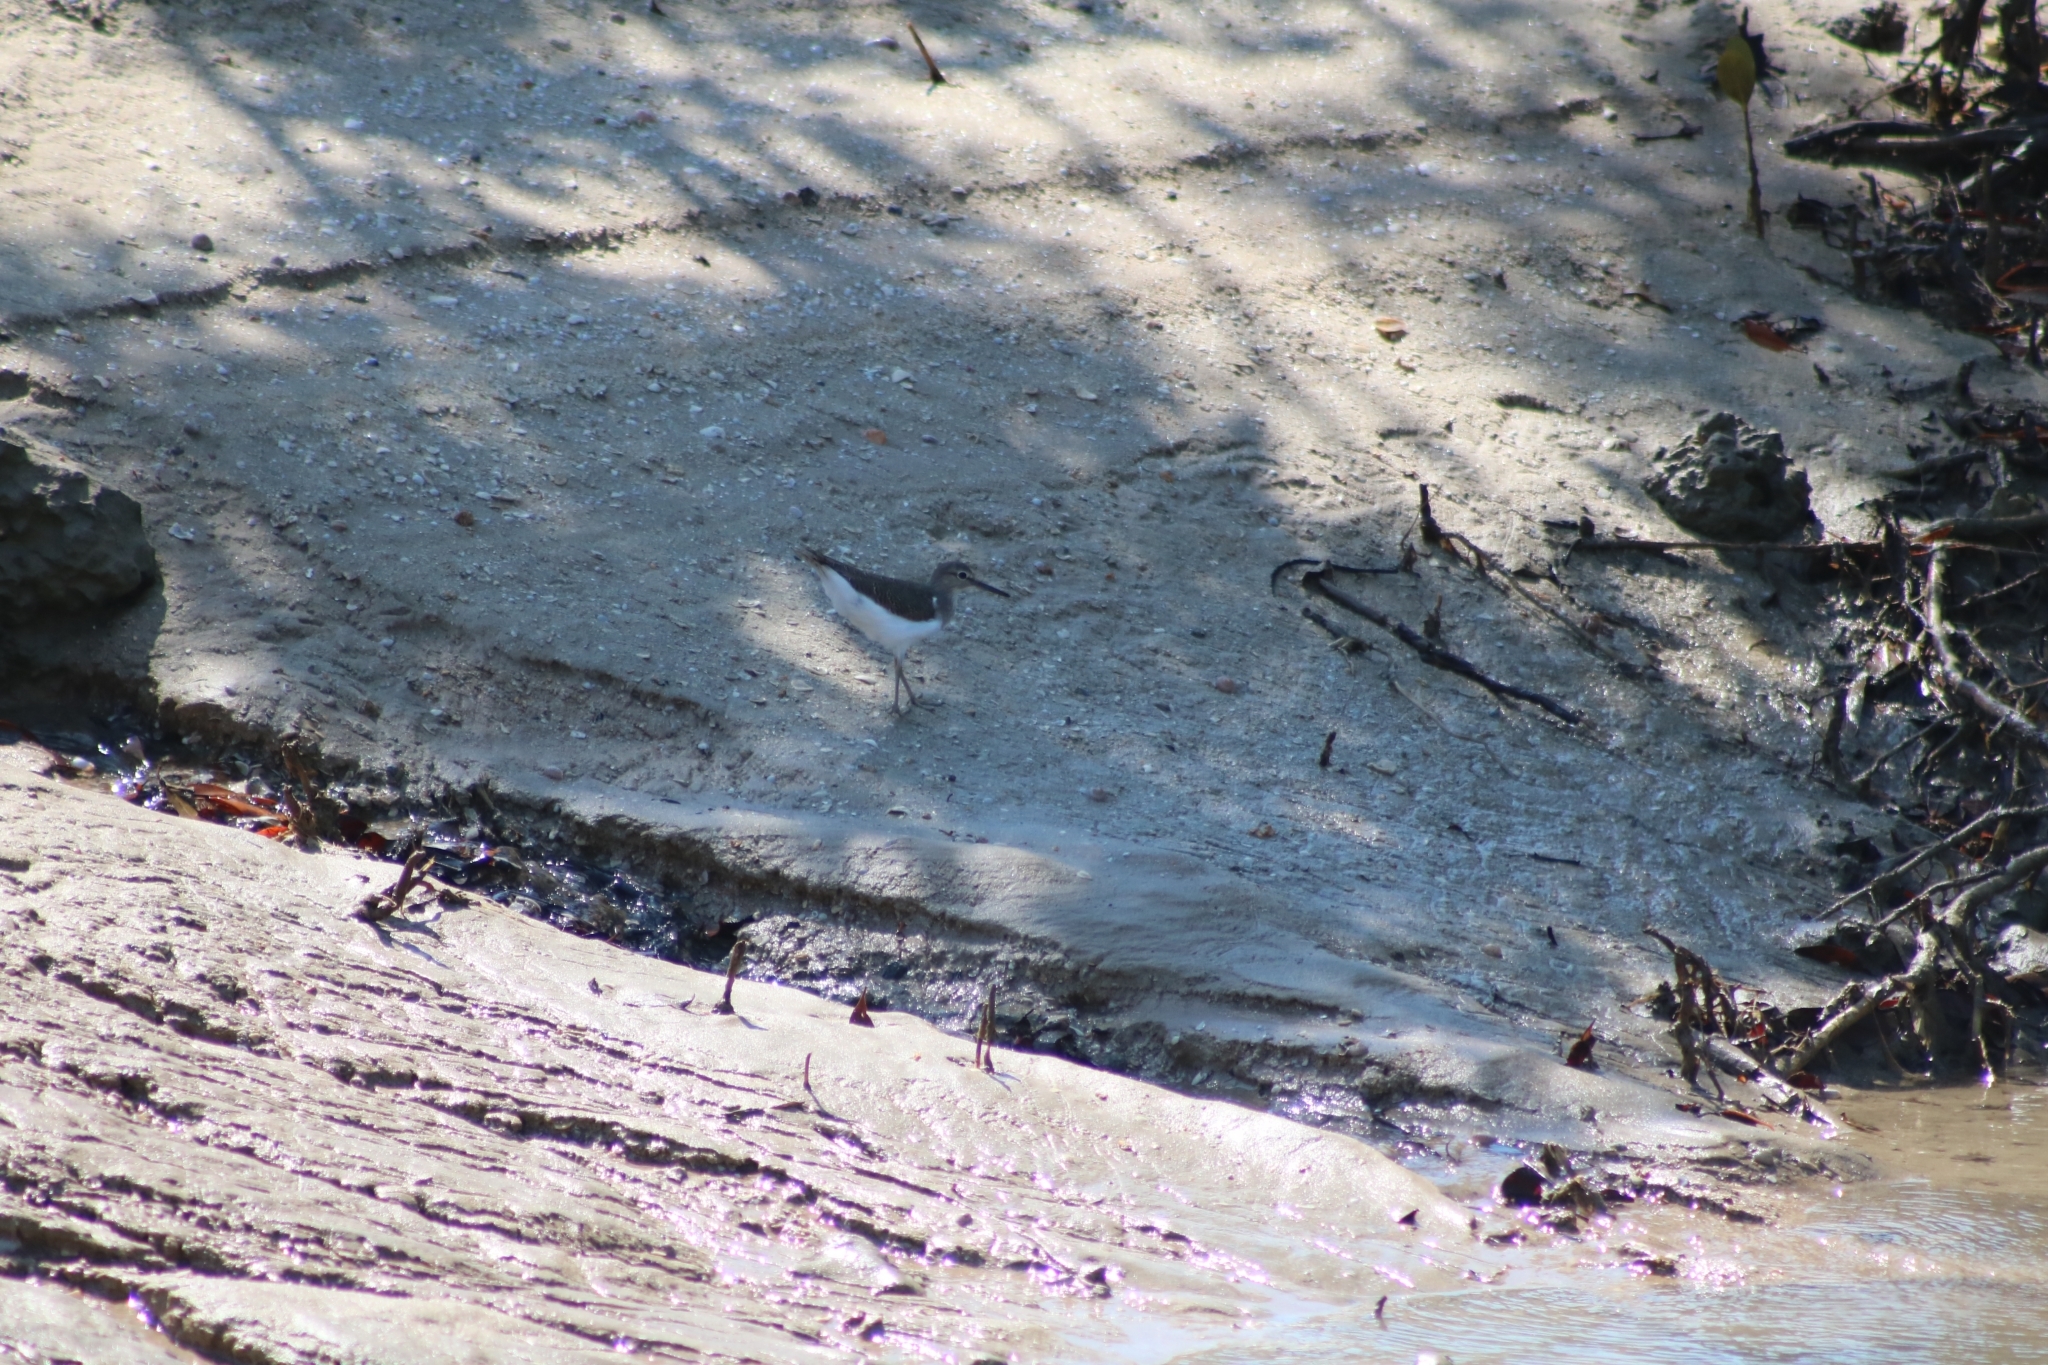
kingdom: Animalia
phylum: Chordata
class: Aves
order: Charadriiformes
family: Scolopacidae
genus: Actitis
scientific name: Actitis hypoleucos
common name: Common sandpiper
